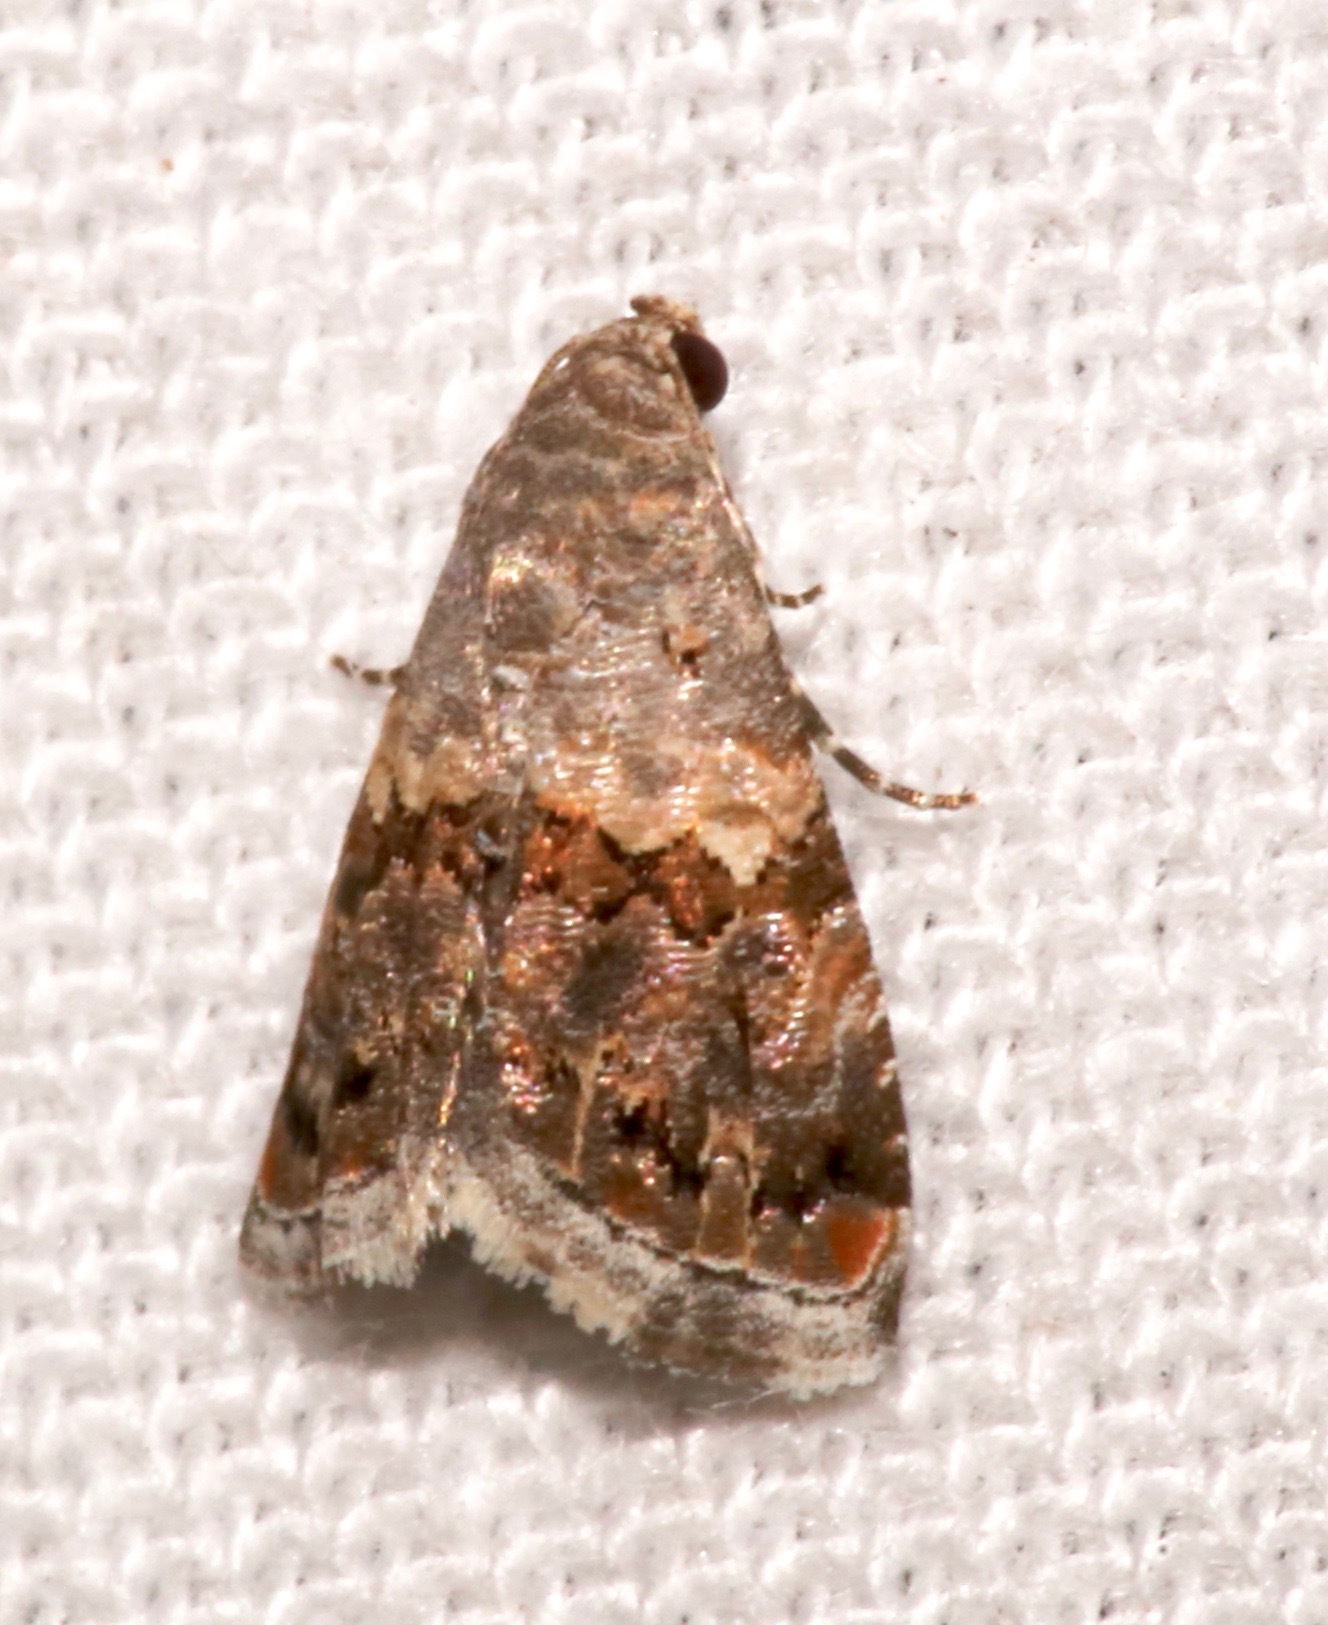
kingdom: Animalia
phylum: Arthropoda
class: Insecta
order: Lepidoptera
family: Noctuidae
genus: Tripudia
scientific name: Tripudia luxuriosa
